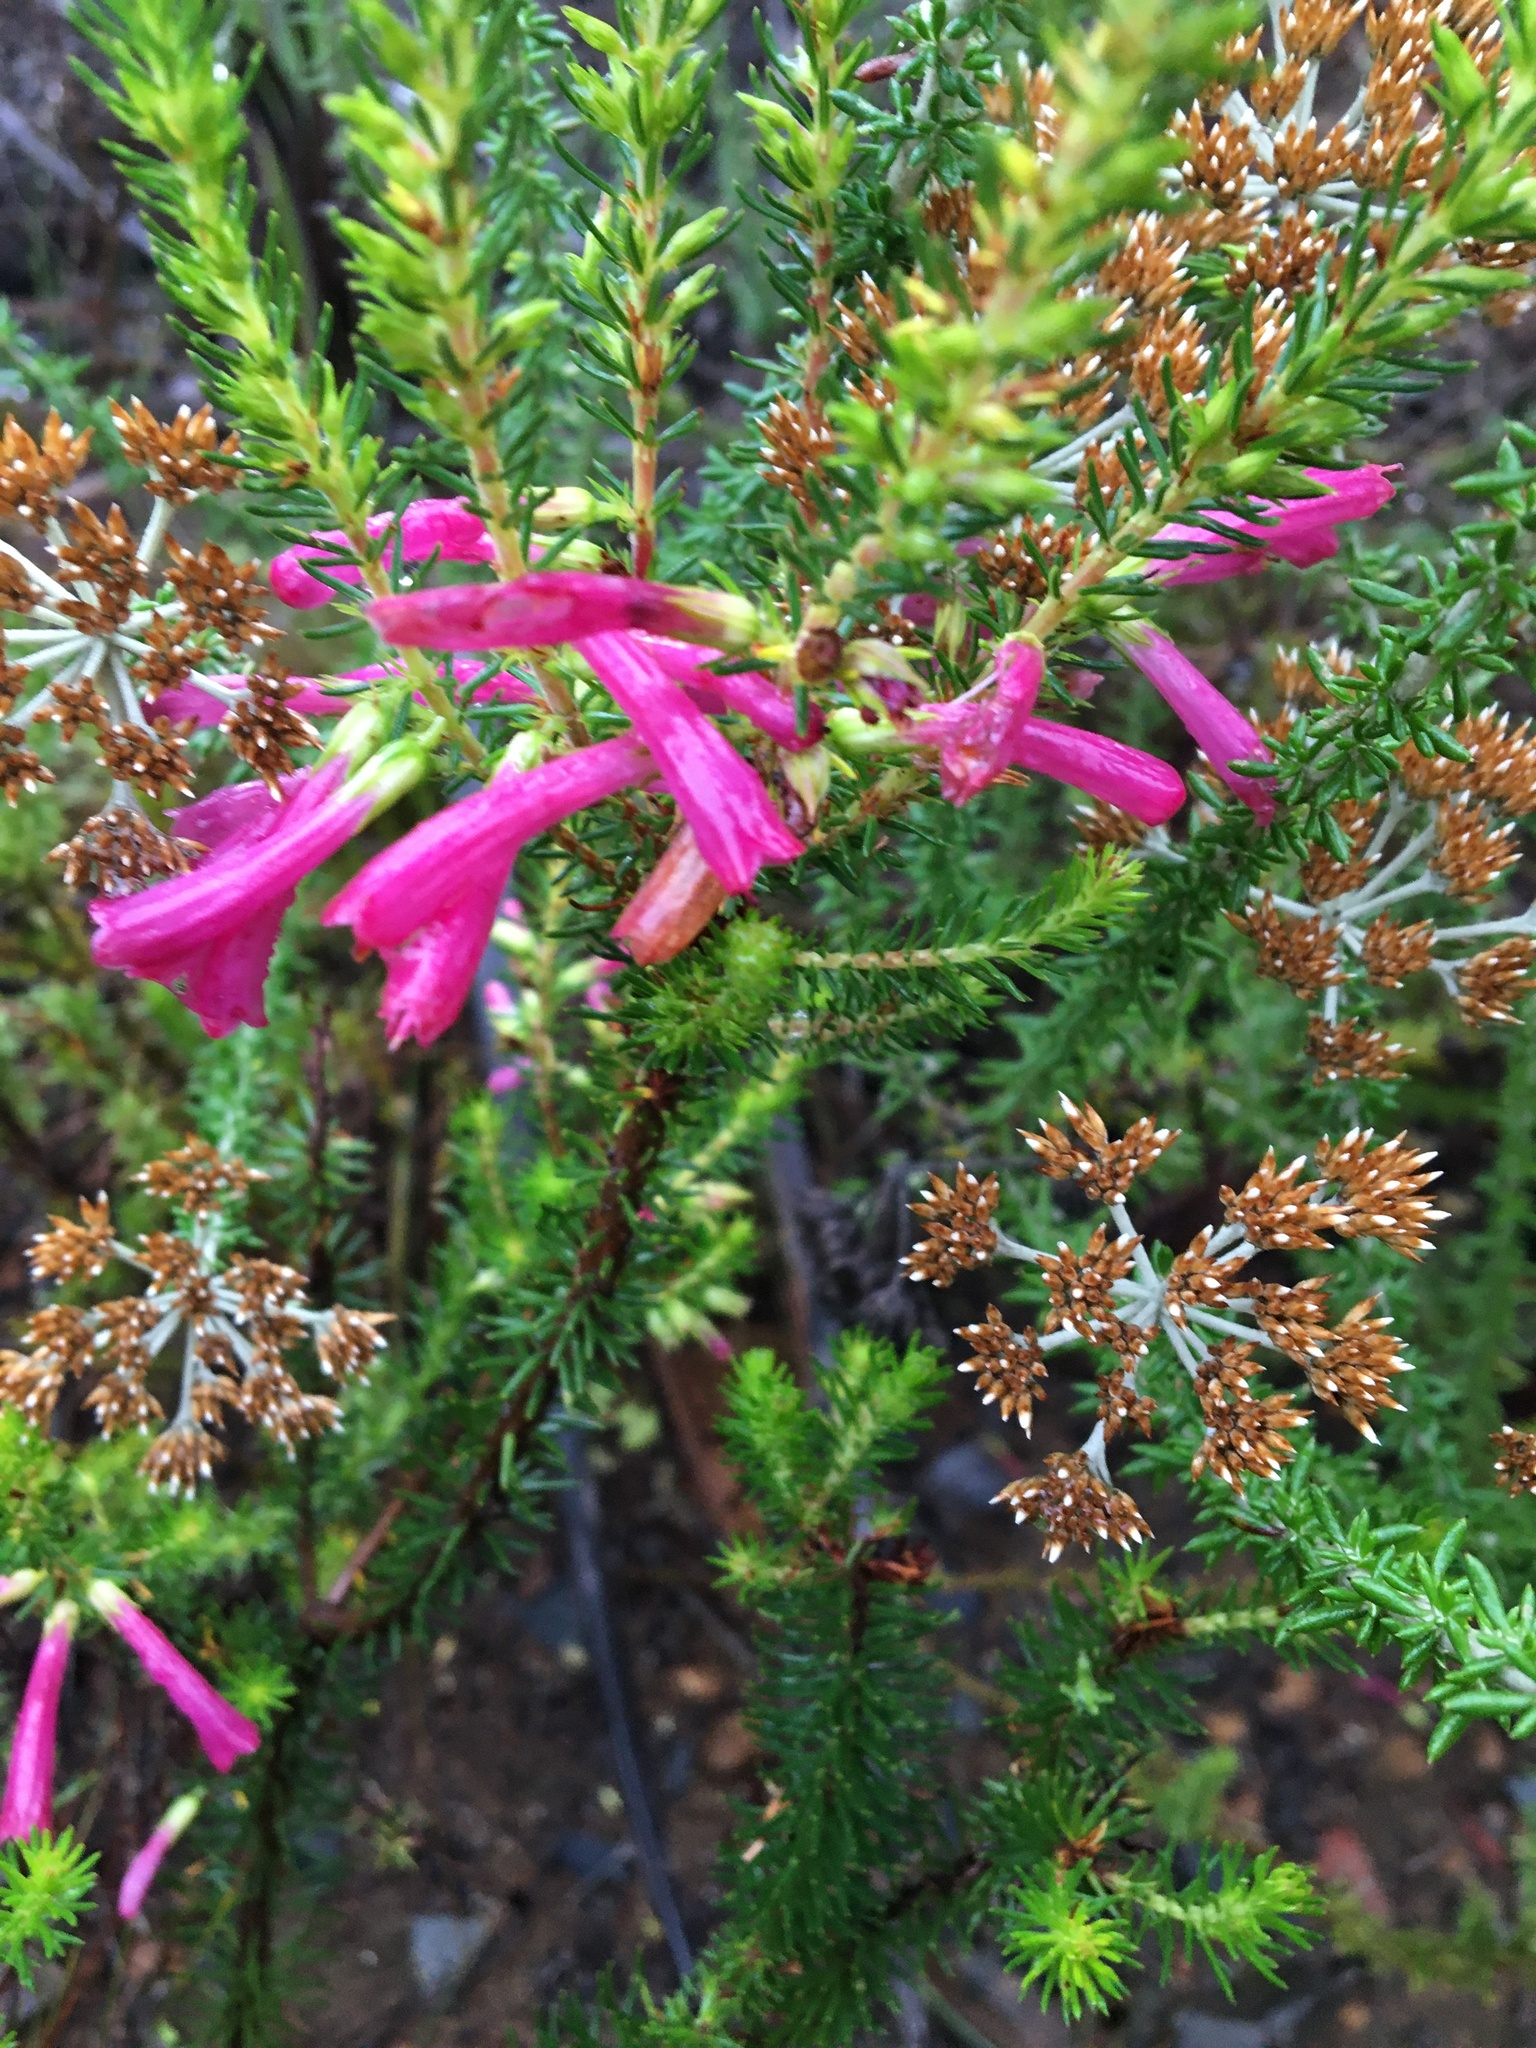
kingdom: Plantae
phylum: Tracheophyta
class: Magnoliopsida
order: Ericales
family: Ericaceae
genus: Erica
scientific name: Erica abietina
